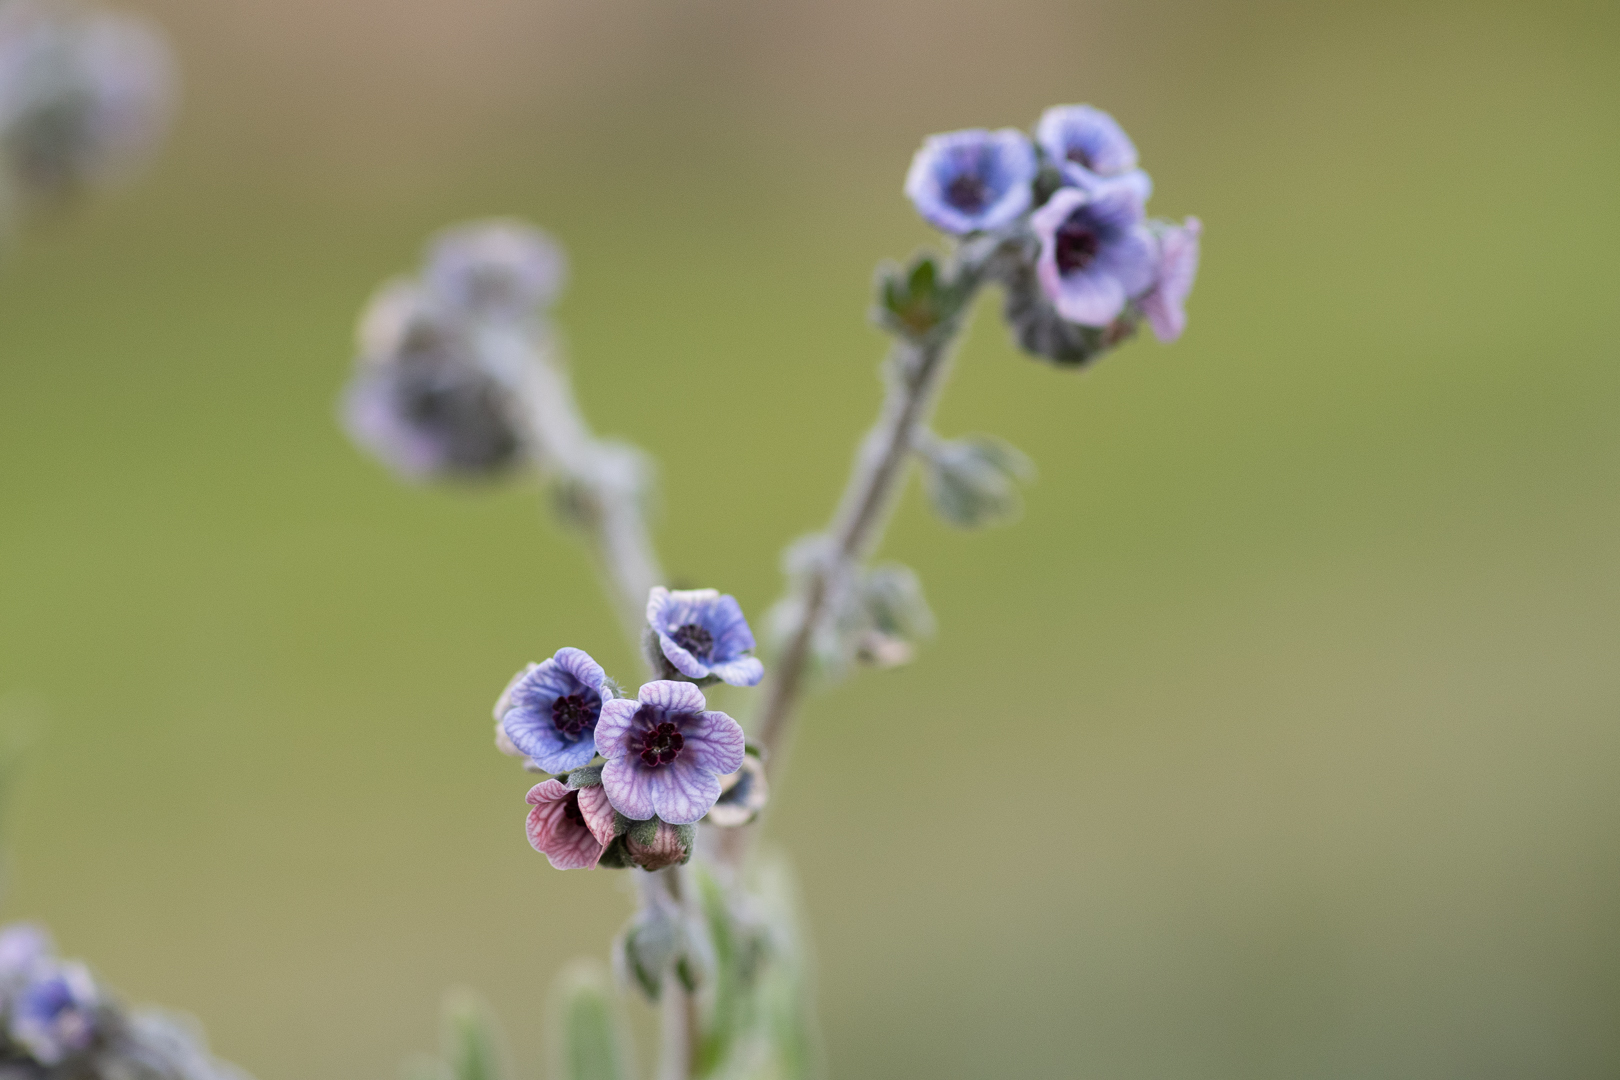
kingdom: Plantae
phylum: Tracheophyta
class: Magnoliopsida
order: Boraginales
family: Boraginaceae
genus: Cynoglossum
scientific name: Cynoglossum creticum
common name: Blue hound's tongue
